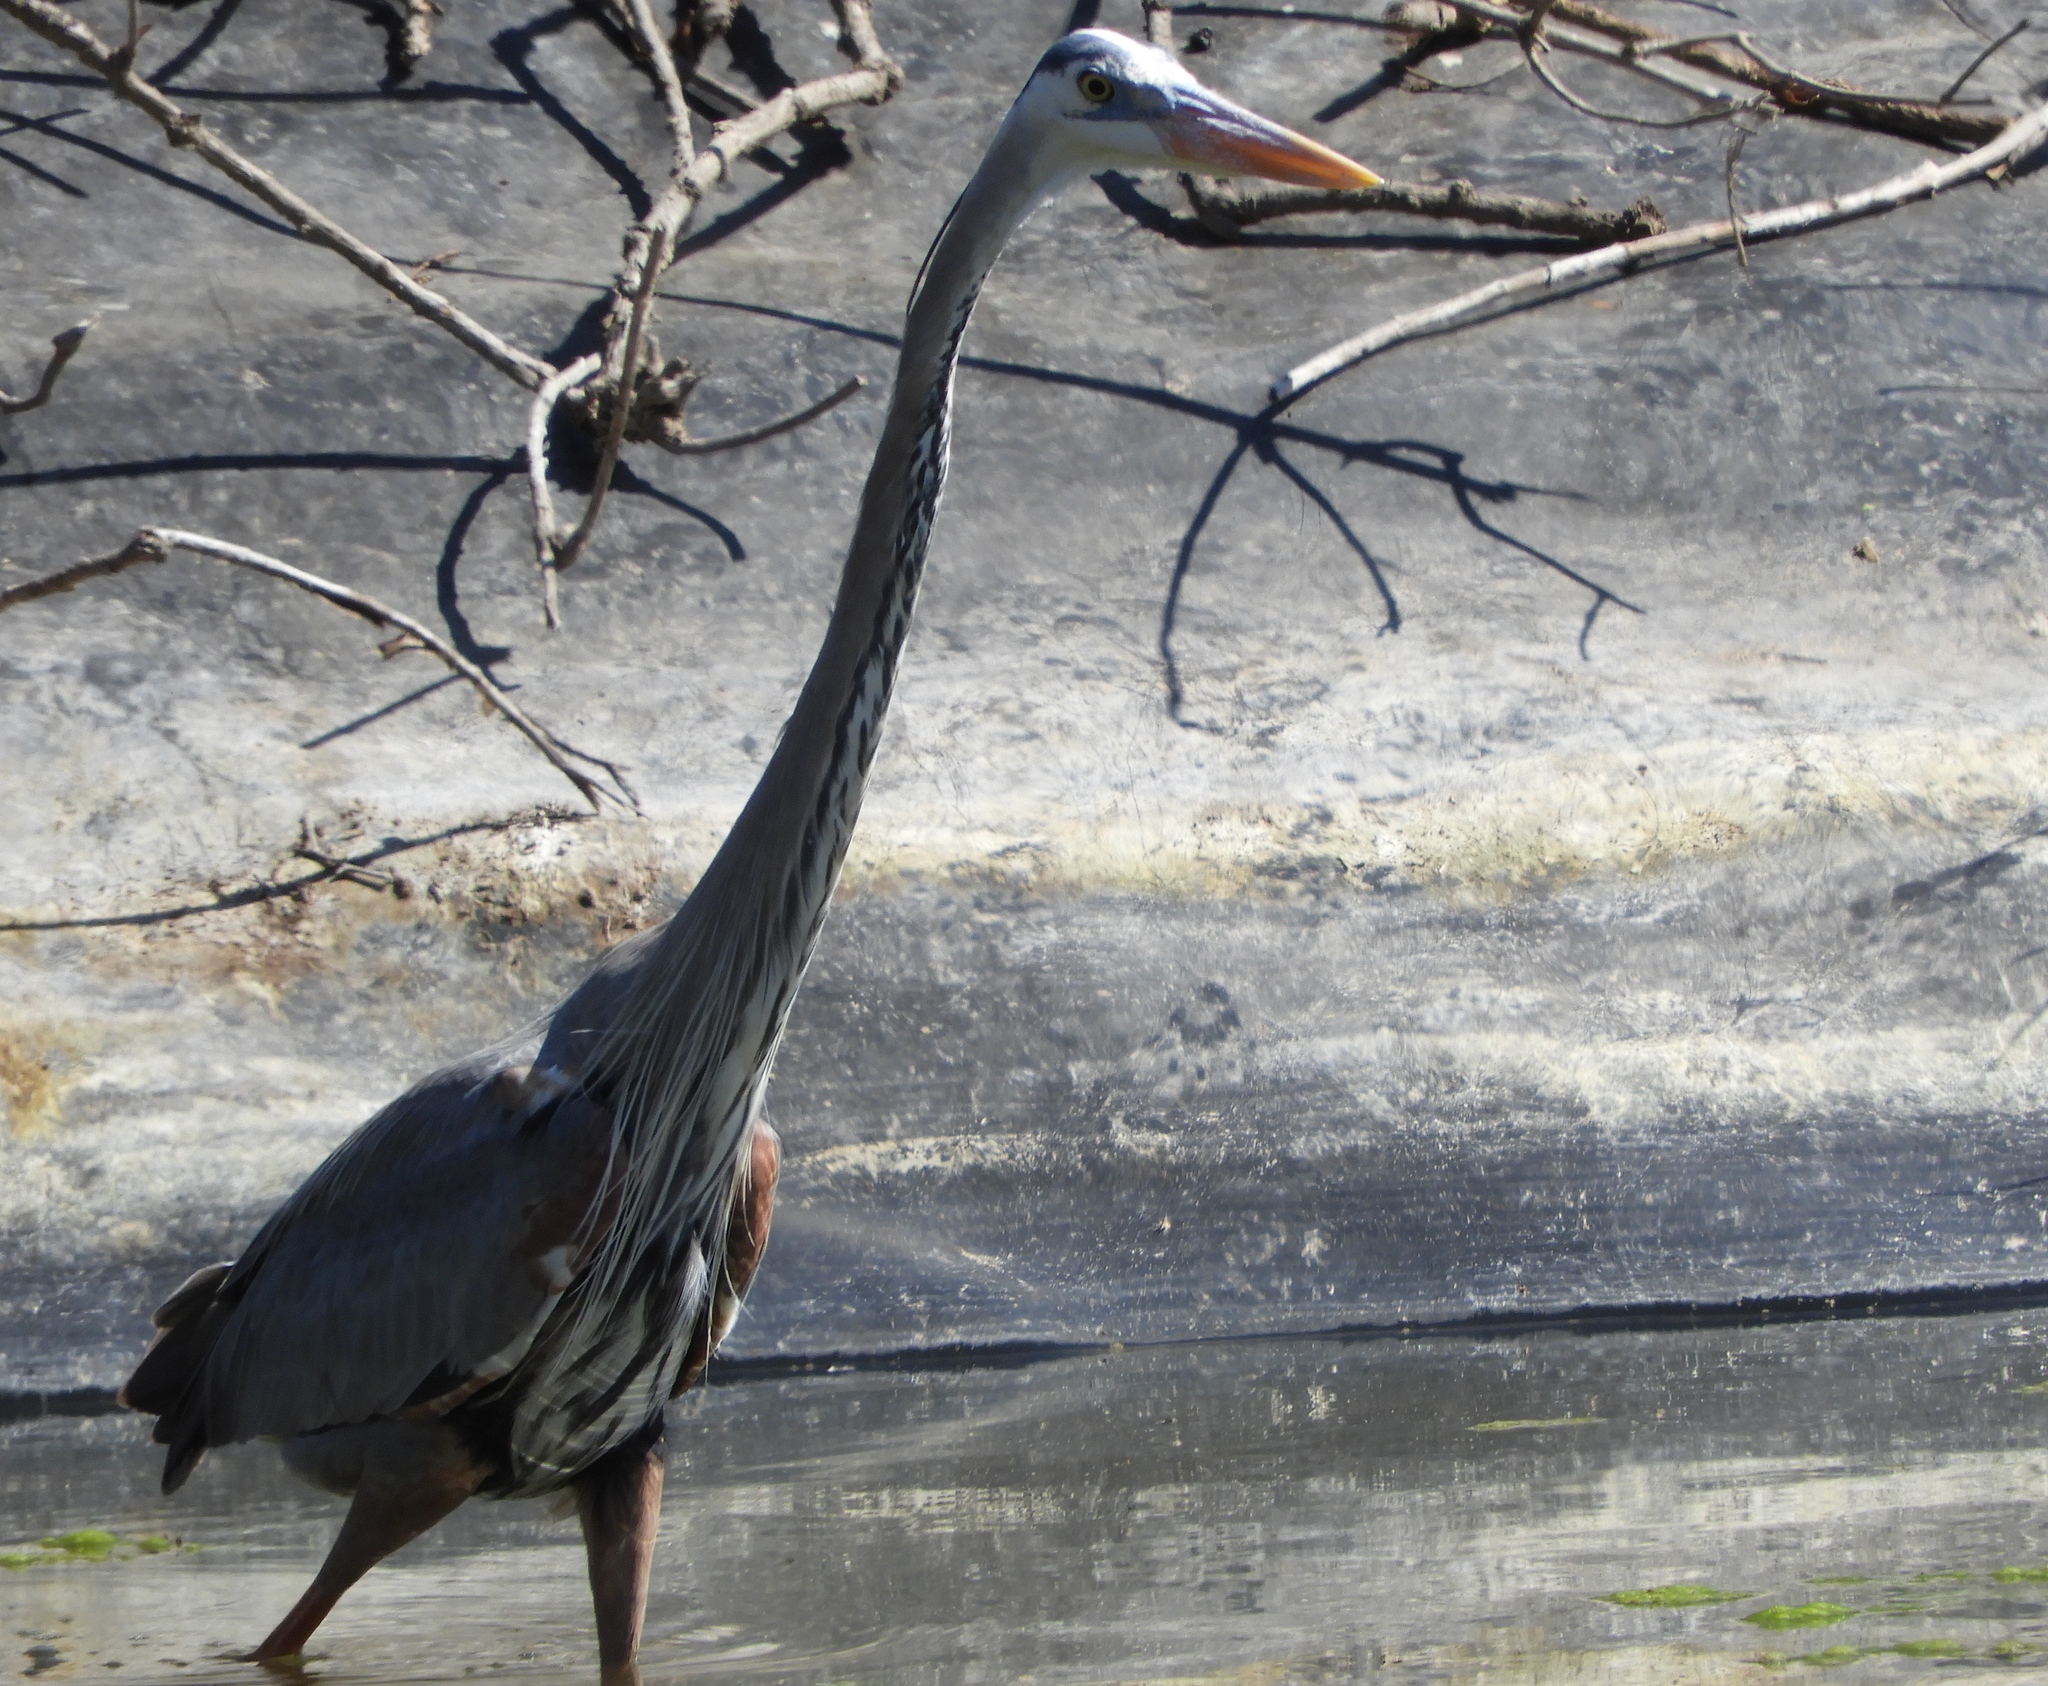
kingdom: Animalia
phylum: Chordata
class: Aves
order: Pelecaniformes
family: Ardeidae
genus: Ardea
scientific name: Ardea herodias
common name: Great blue heron
